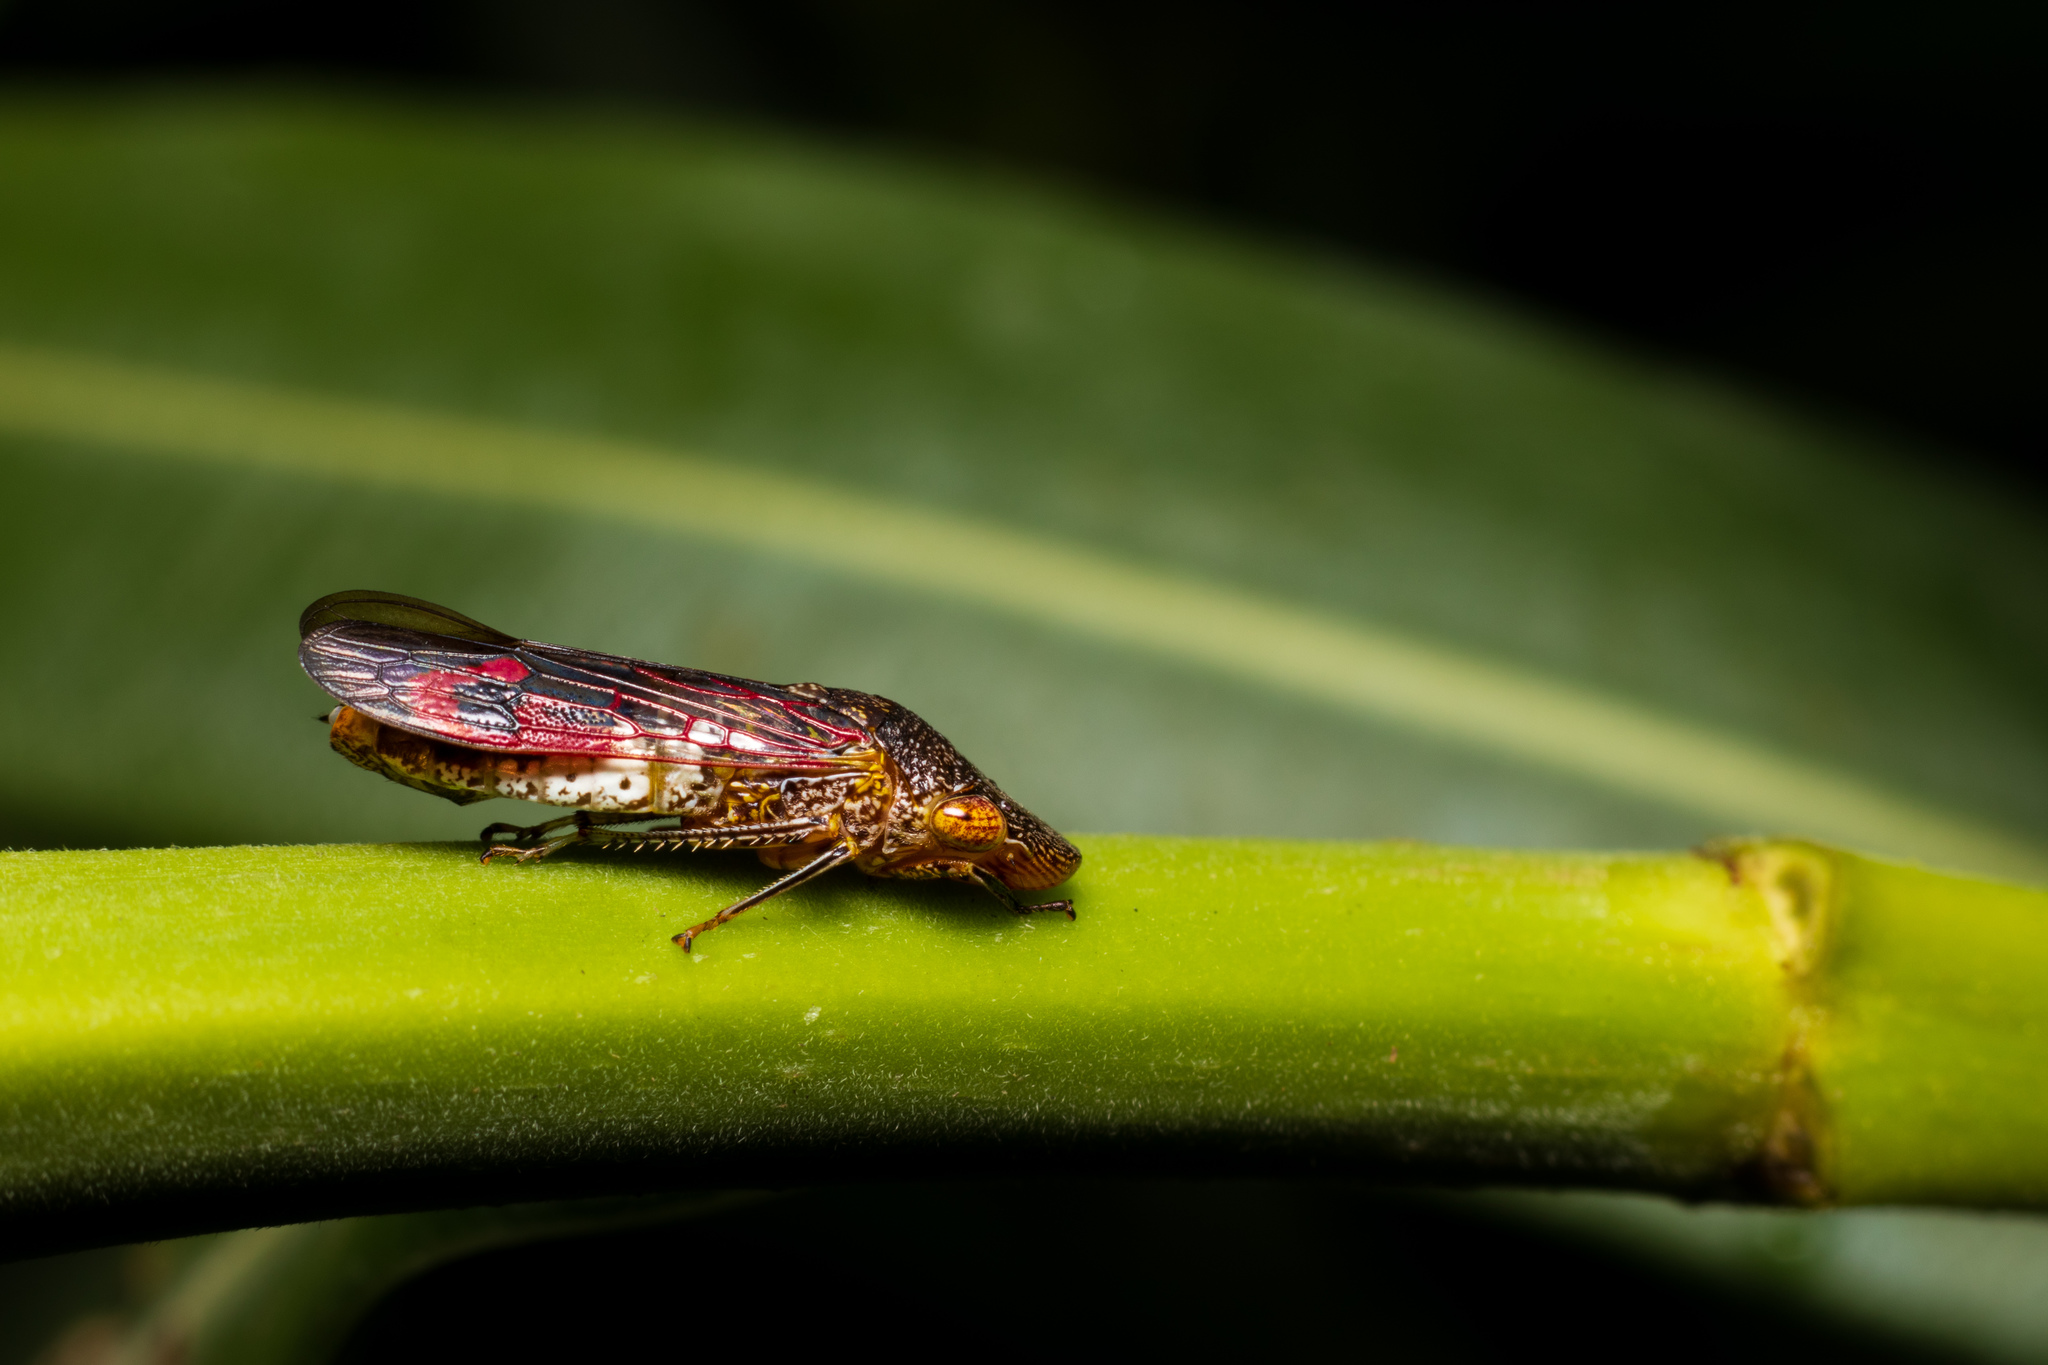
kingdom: Animalia
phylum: Arthropoda
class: Insecta
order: Hemiptera
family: Cicadellidae
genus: Homalodisca
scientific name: Homalodisca vitripennis
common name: Glassy-winged sharpshooter
